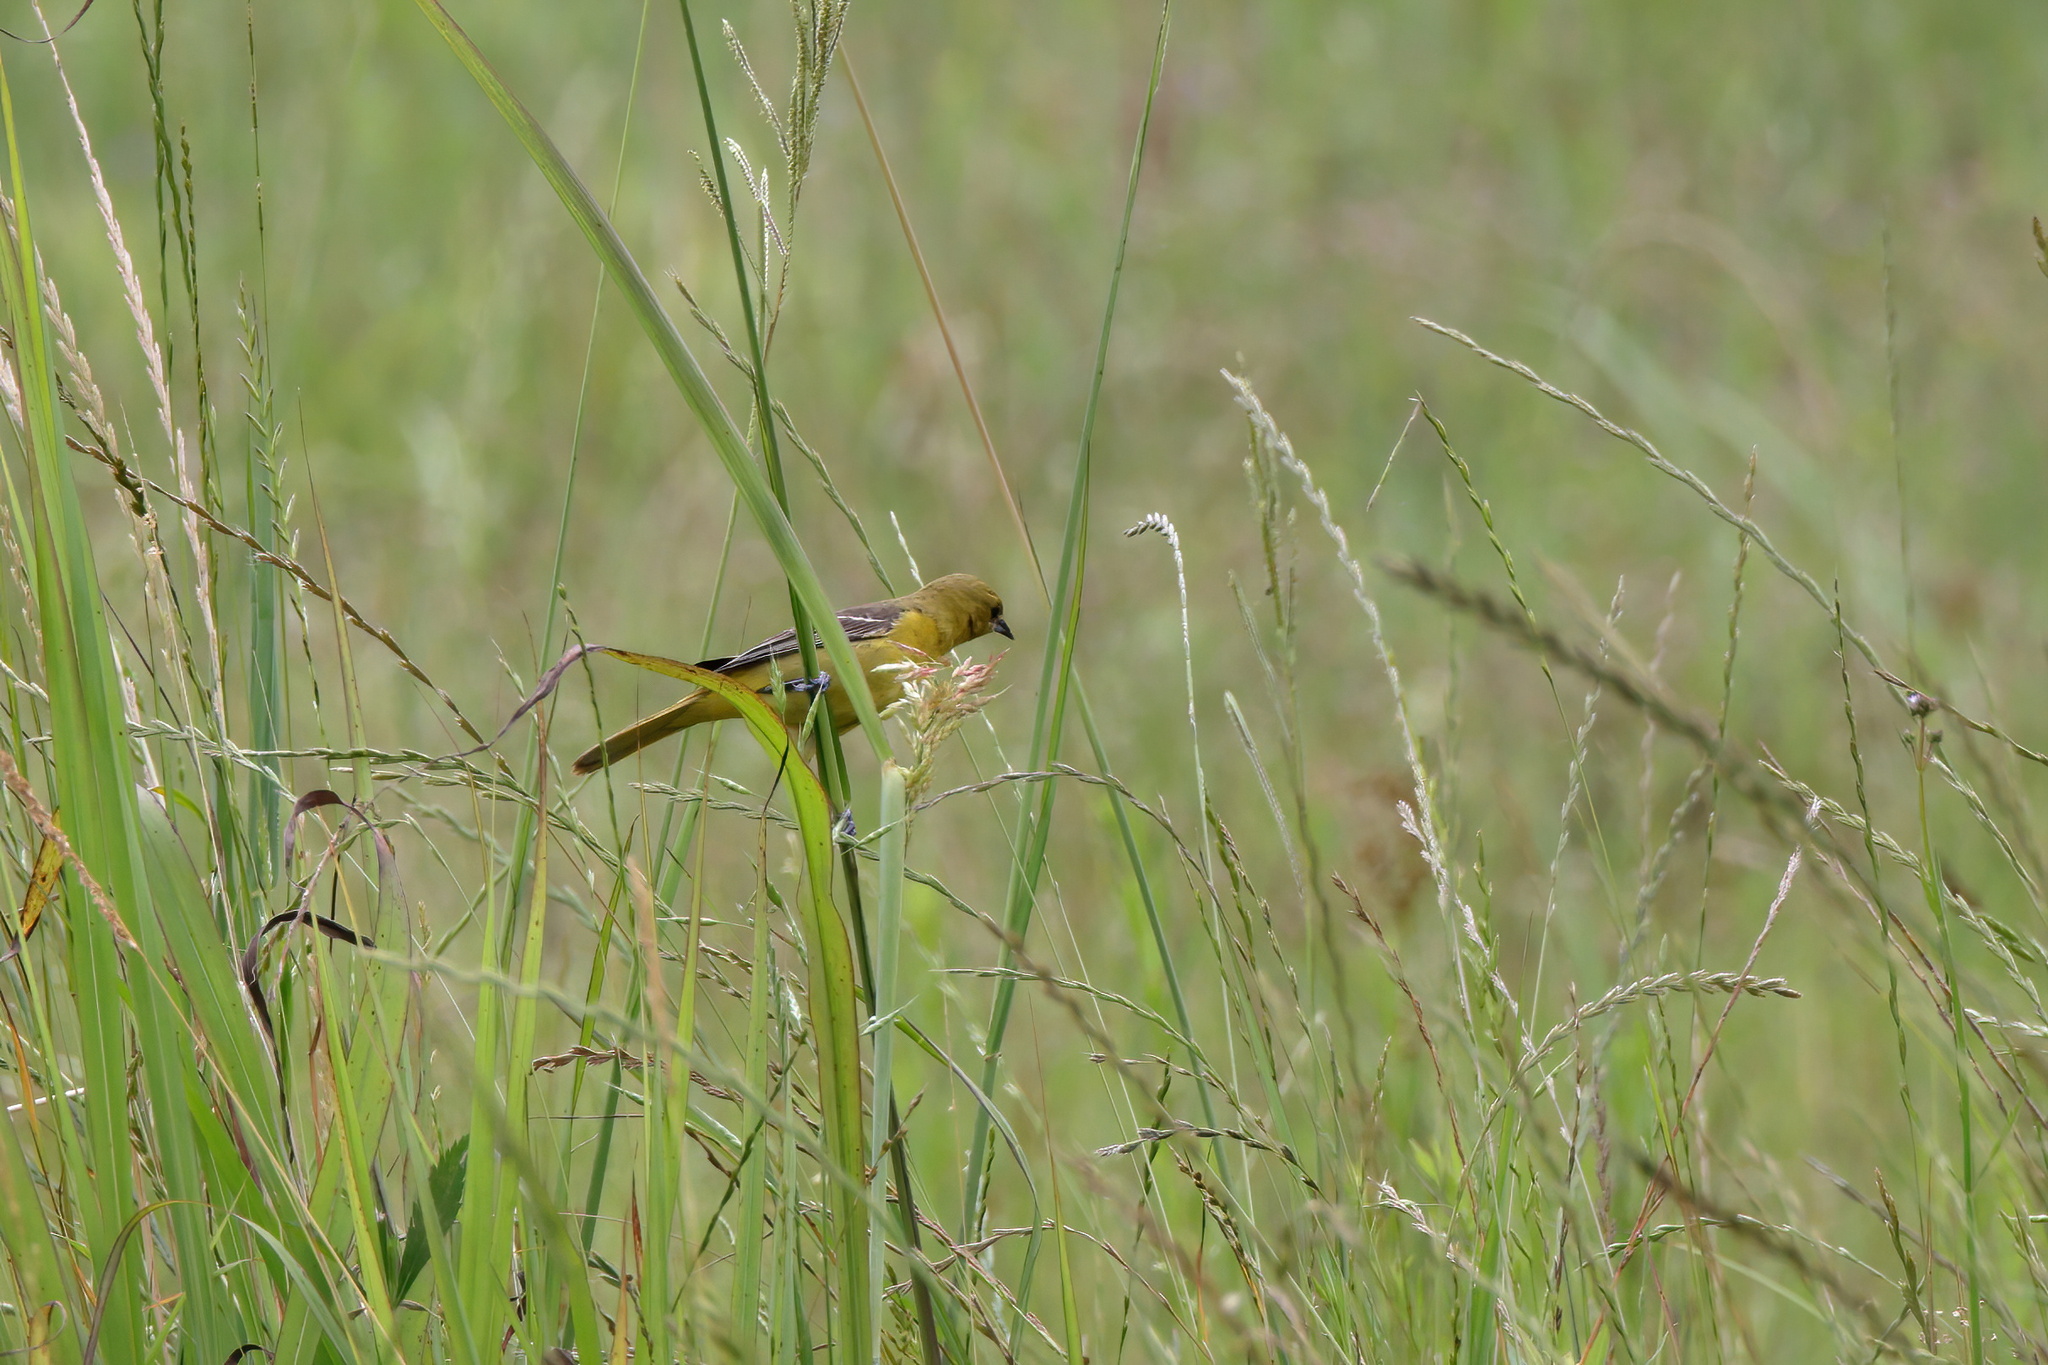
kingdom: Animalia
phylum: Chordata
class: Aves
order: Passeriformes
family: Icteridae
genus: Icterus
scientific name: Icterus spurius
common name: Orchard oriole
